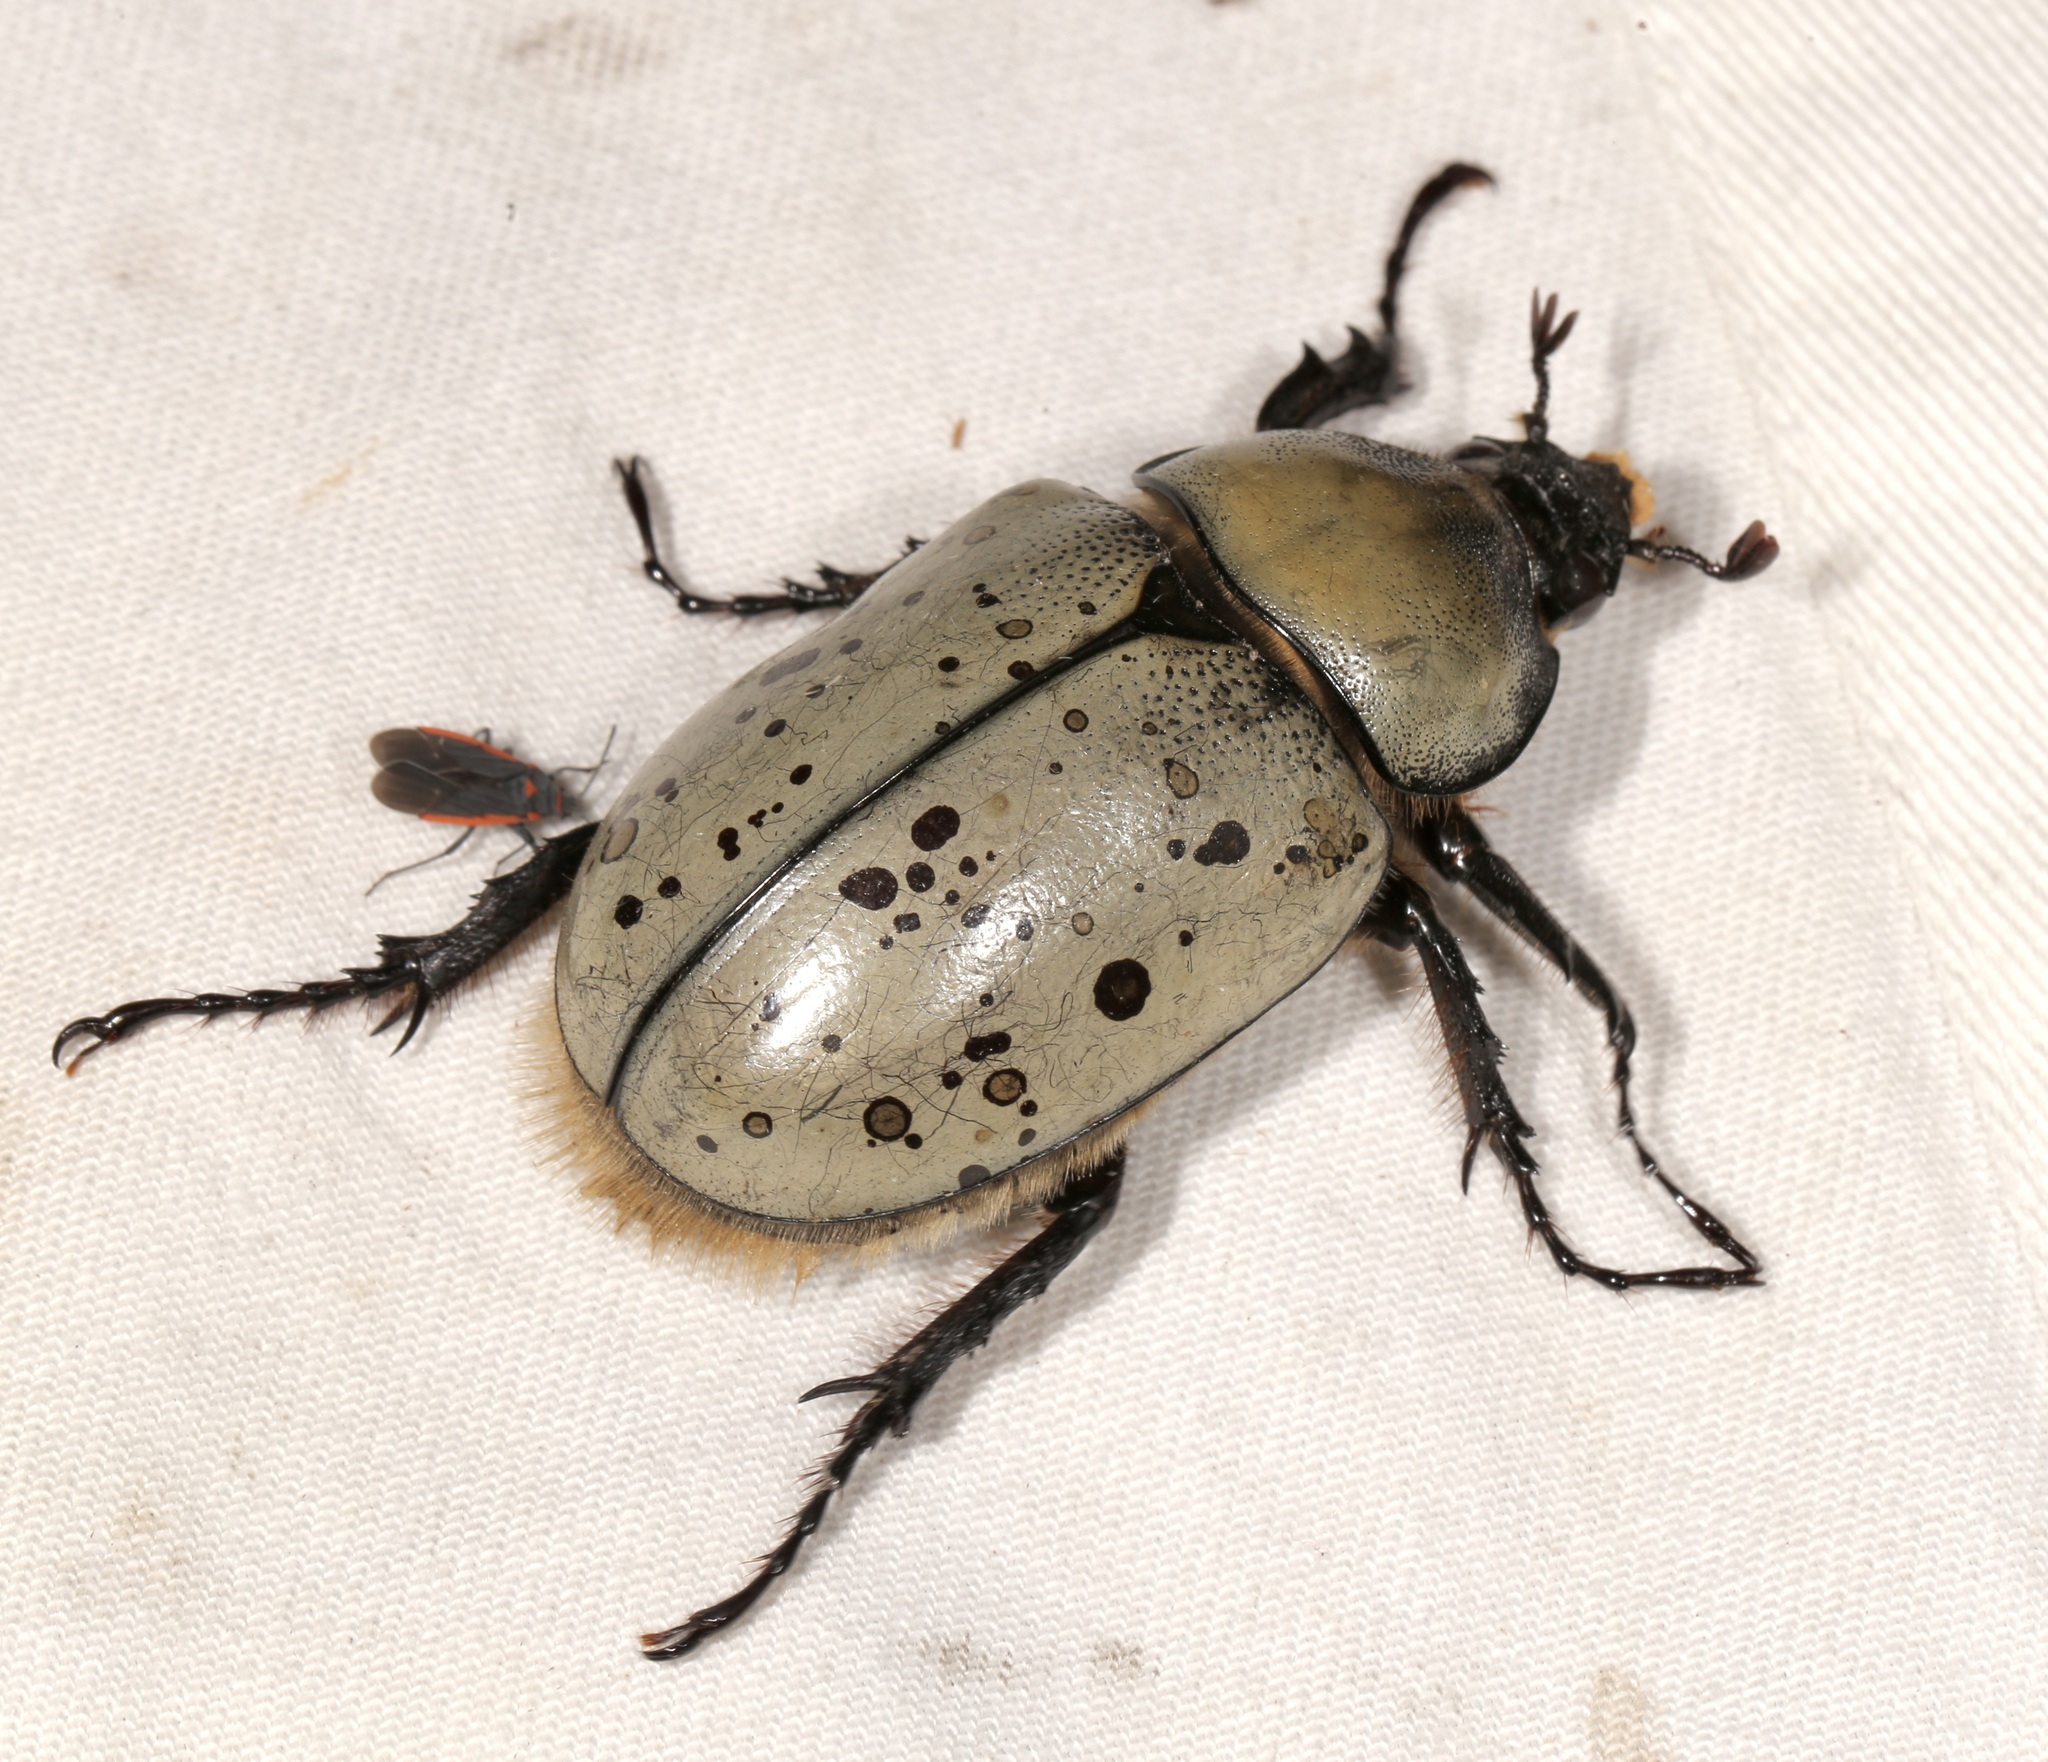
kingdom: Animalia
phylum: Arthropoda
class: Insecta
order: Coleoptera
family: Scarabaeidae
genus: Dynastes
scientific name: Dynastes grantii
